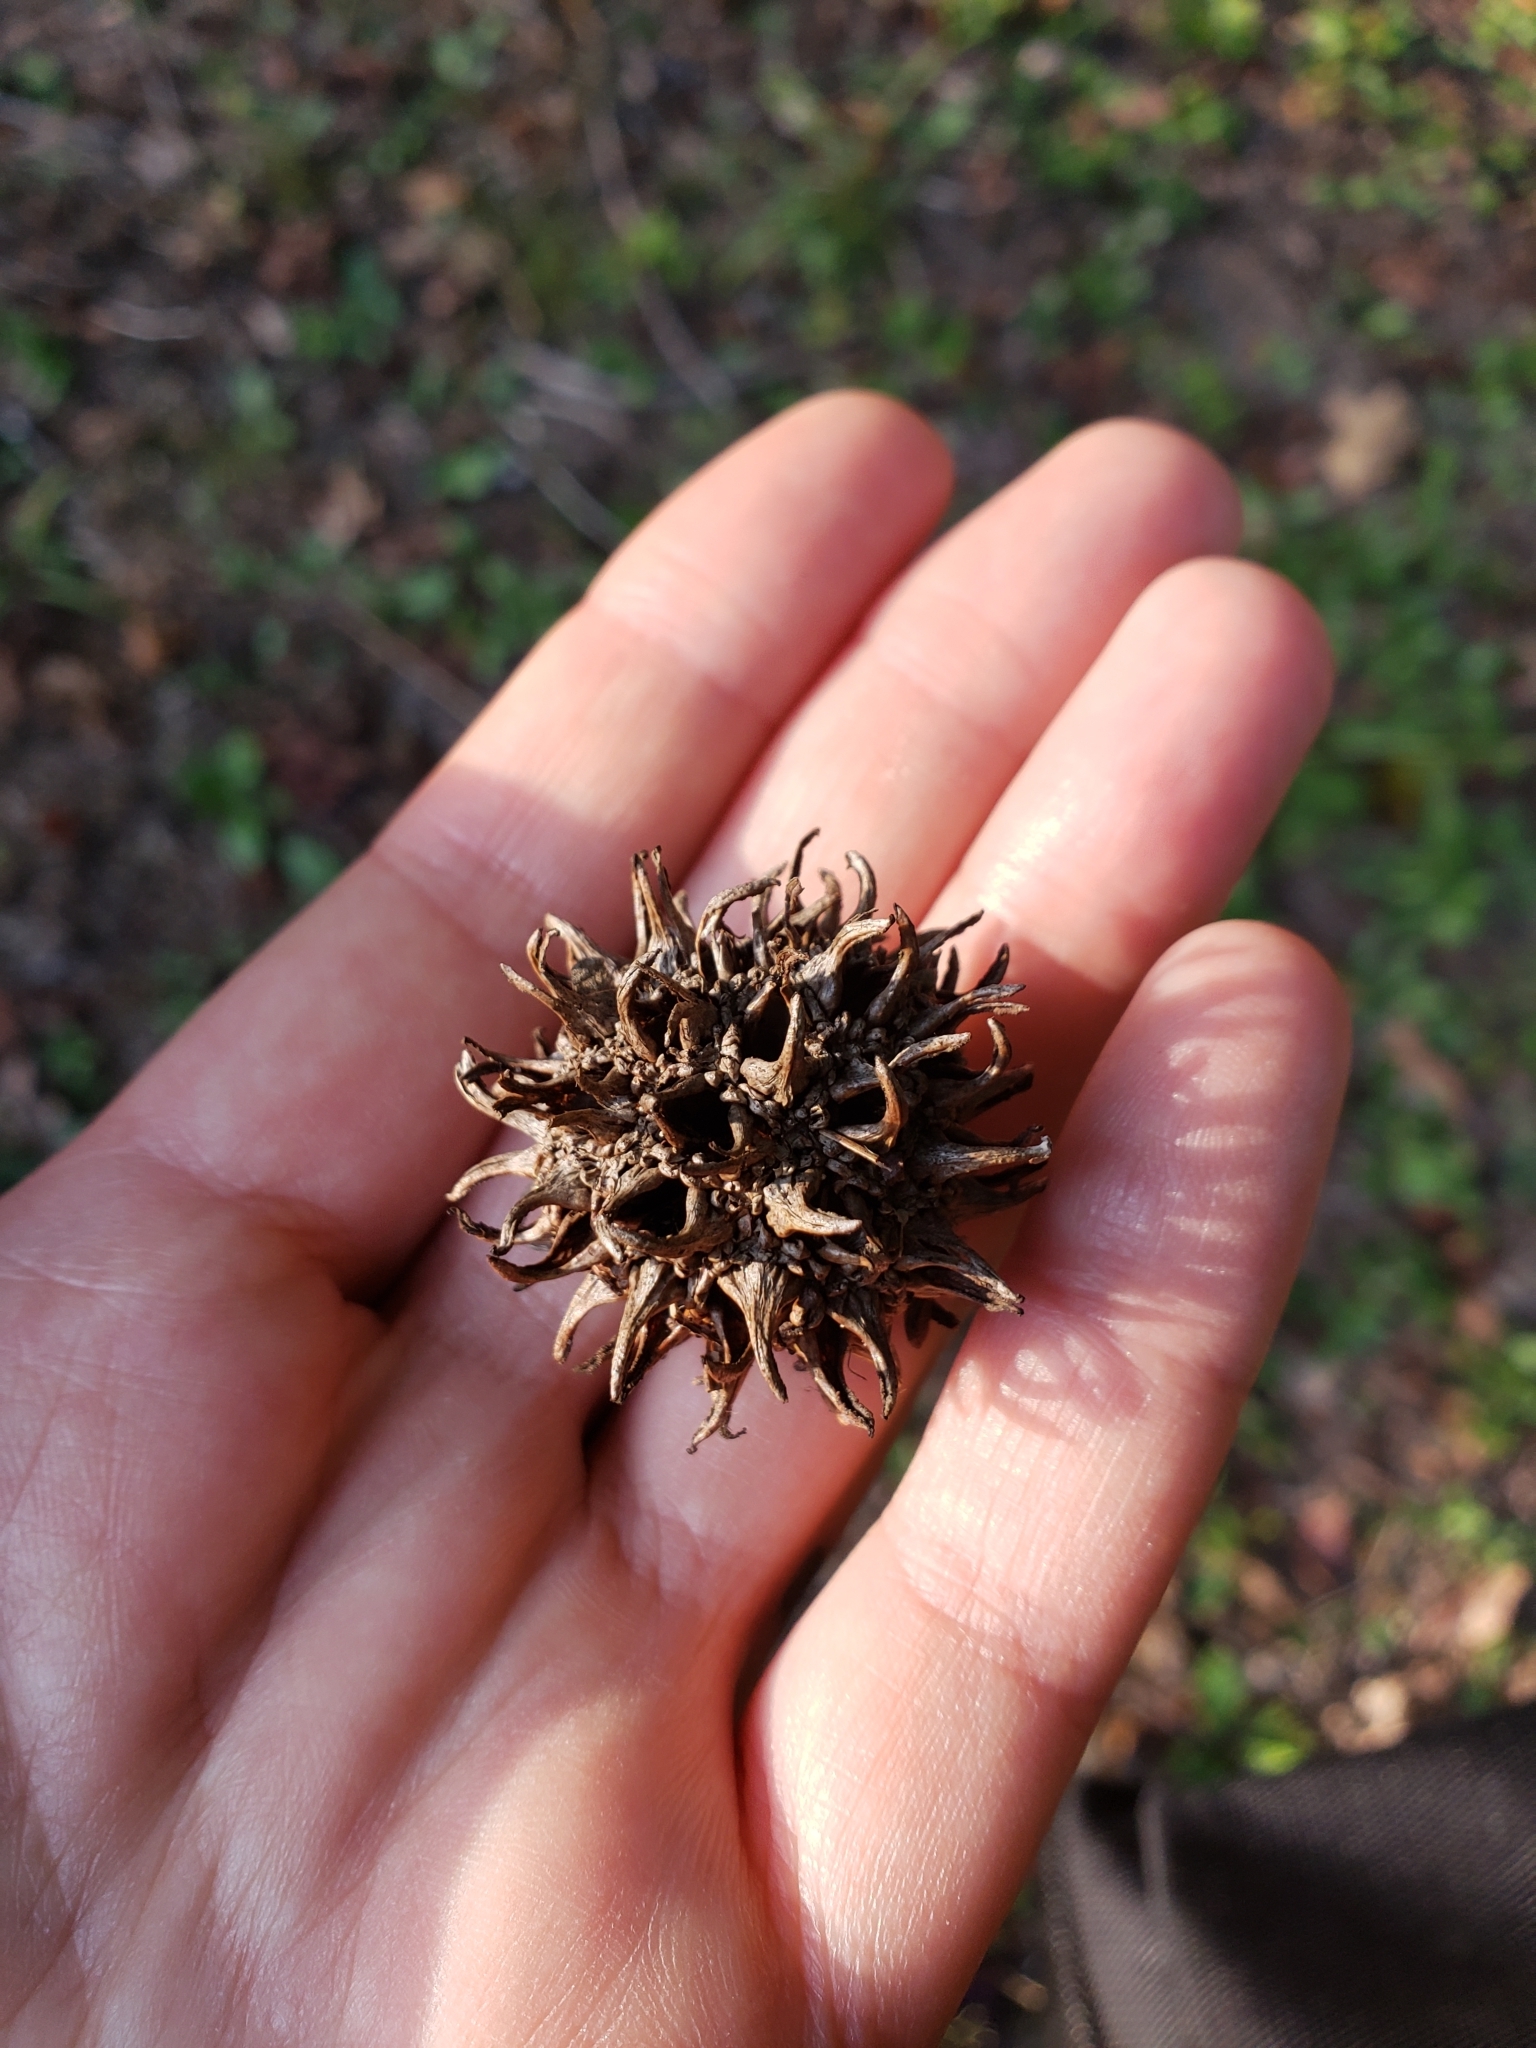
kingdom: Plantae
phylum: Tracheophyta
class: Magnoliopsida
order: Saxifragales
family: Altingiaceae
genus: Liquidambar
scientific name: Liquidambar styraciflua
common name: Sweet gum
